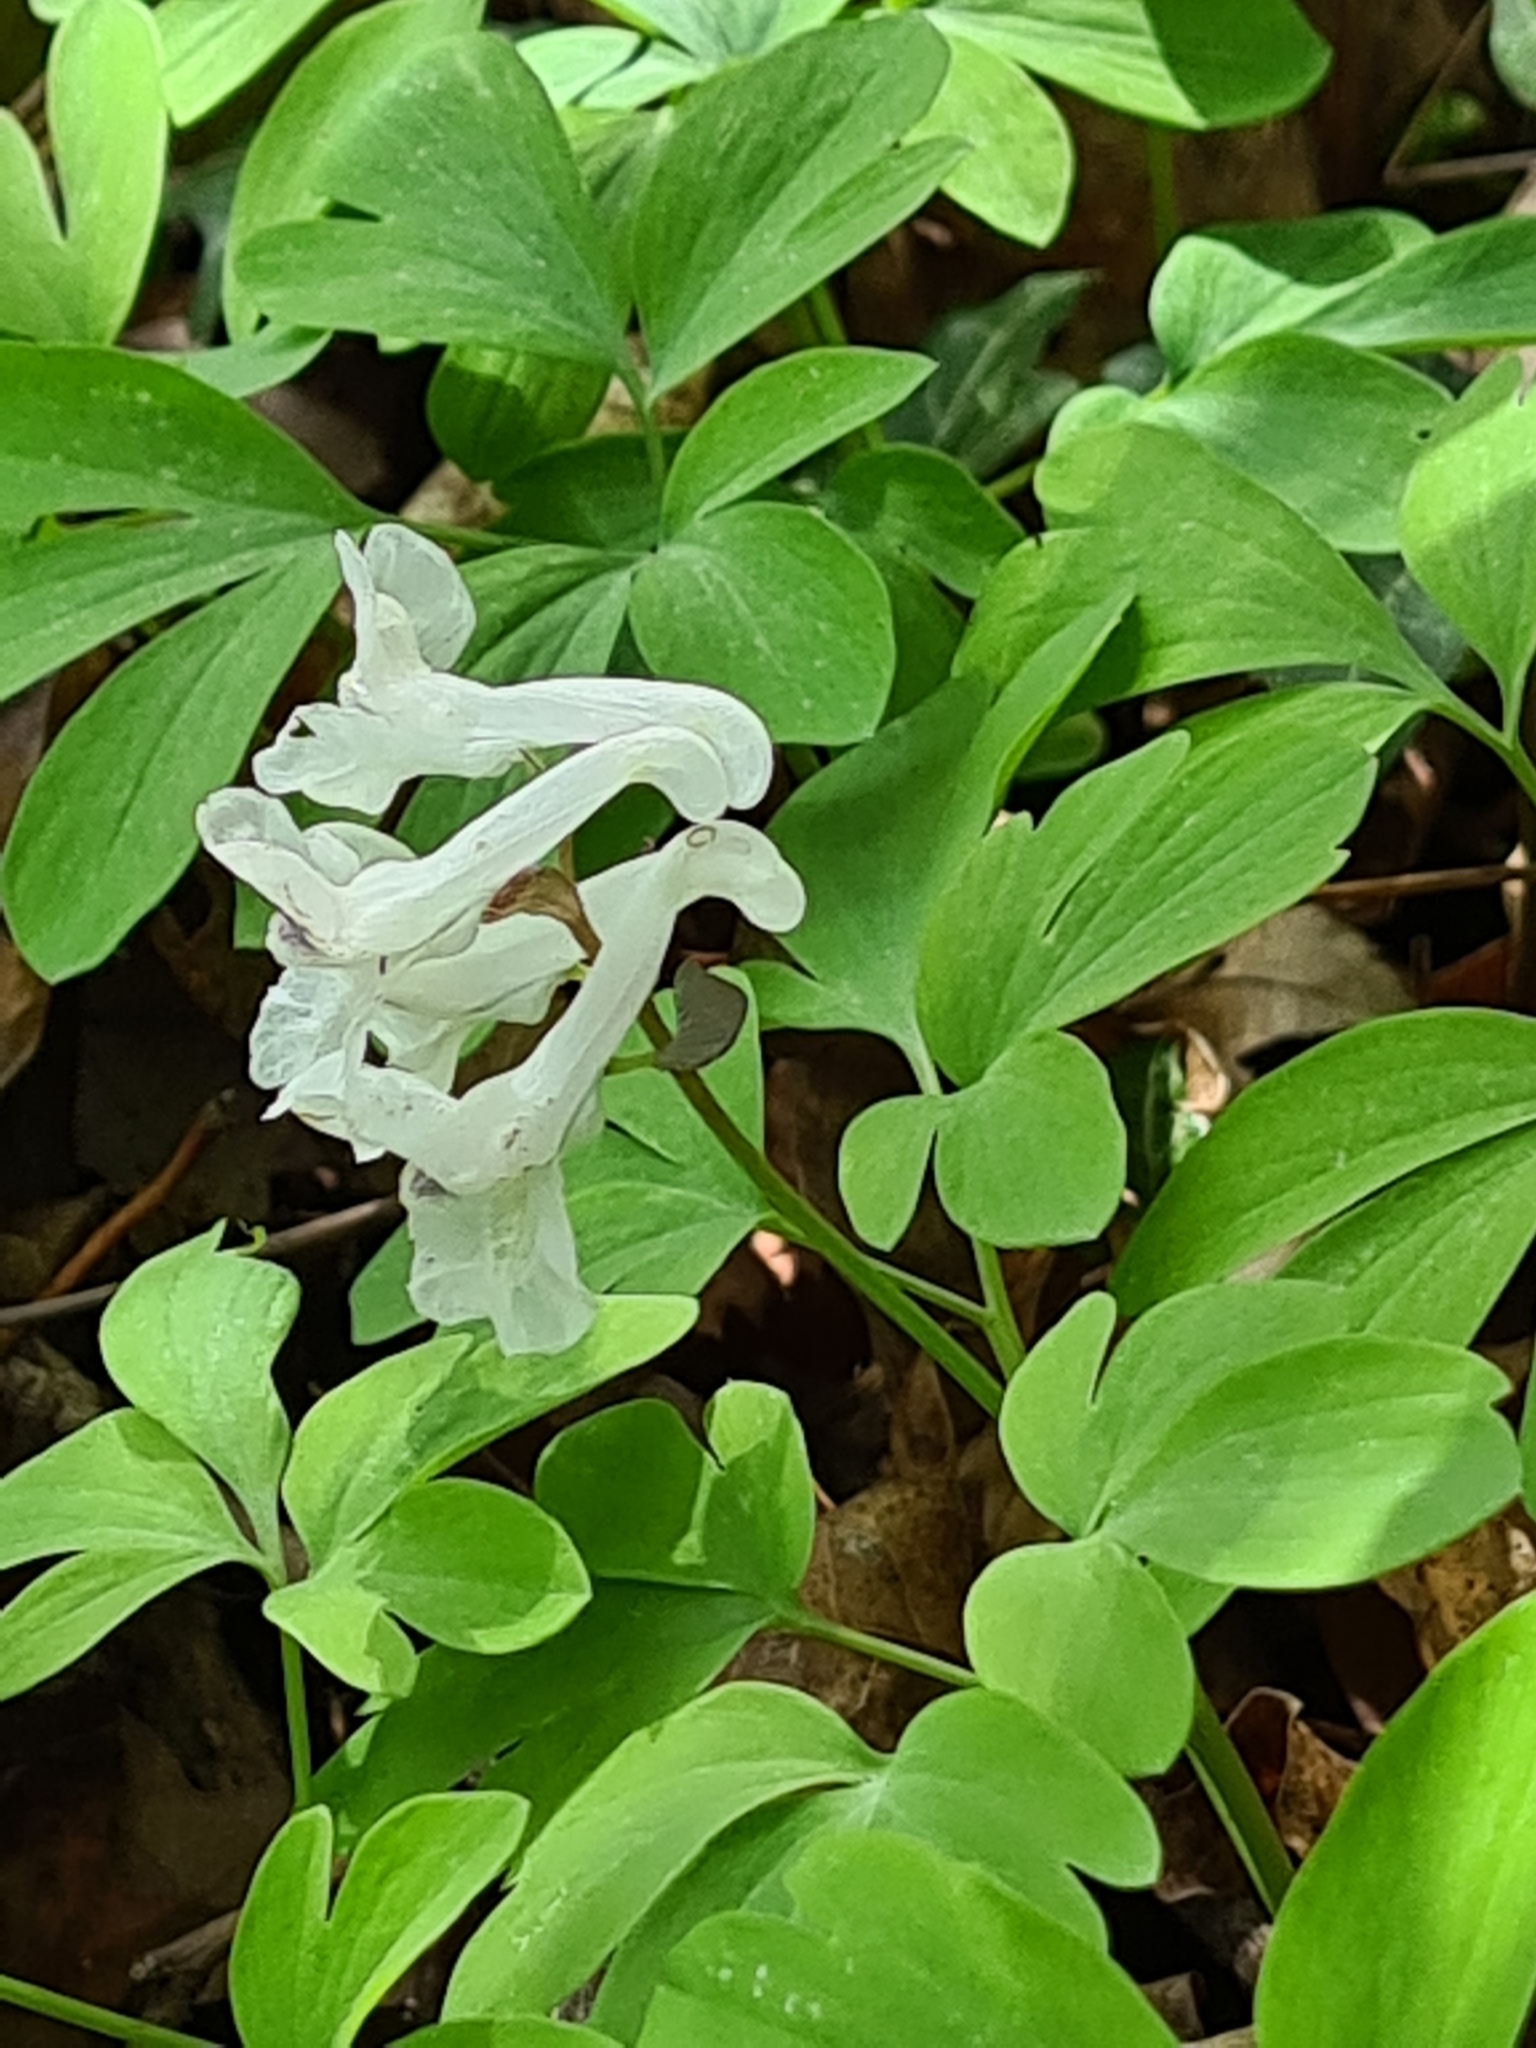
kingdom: Plantae
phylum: Tracheophyta
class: Magnoliopsida
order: Ranunculales
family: Papaveraceae
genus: Corydalis
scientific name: Corydalis cava
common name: Hollowroot
